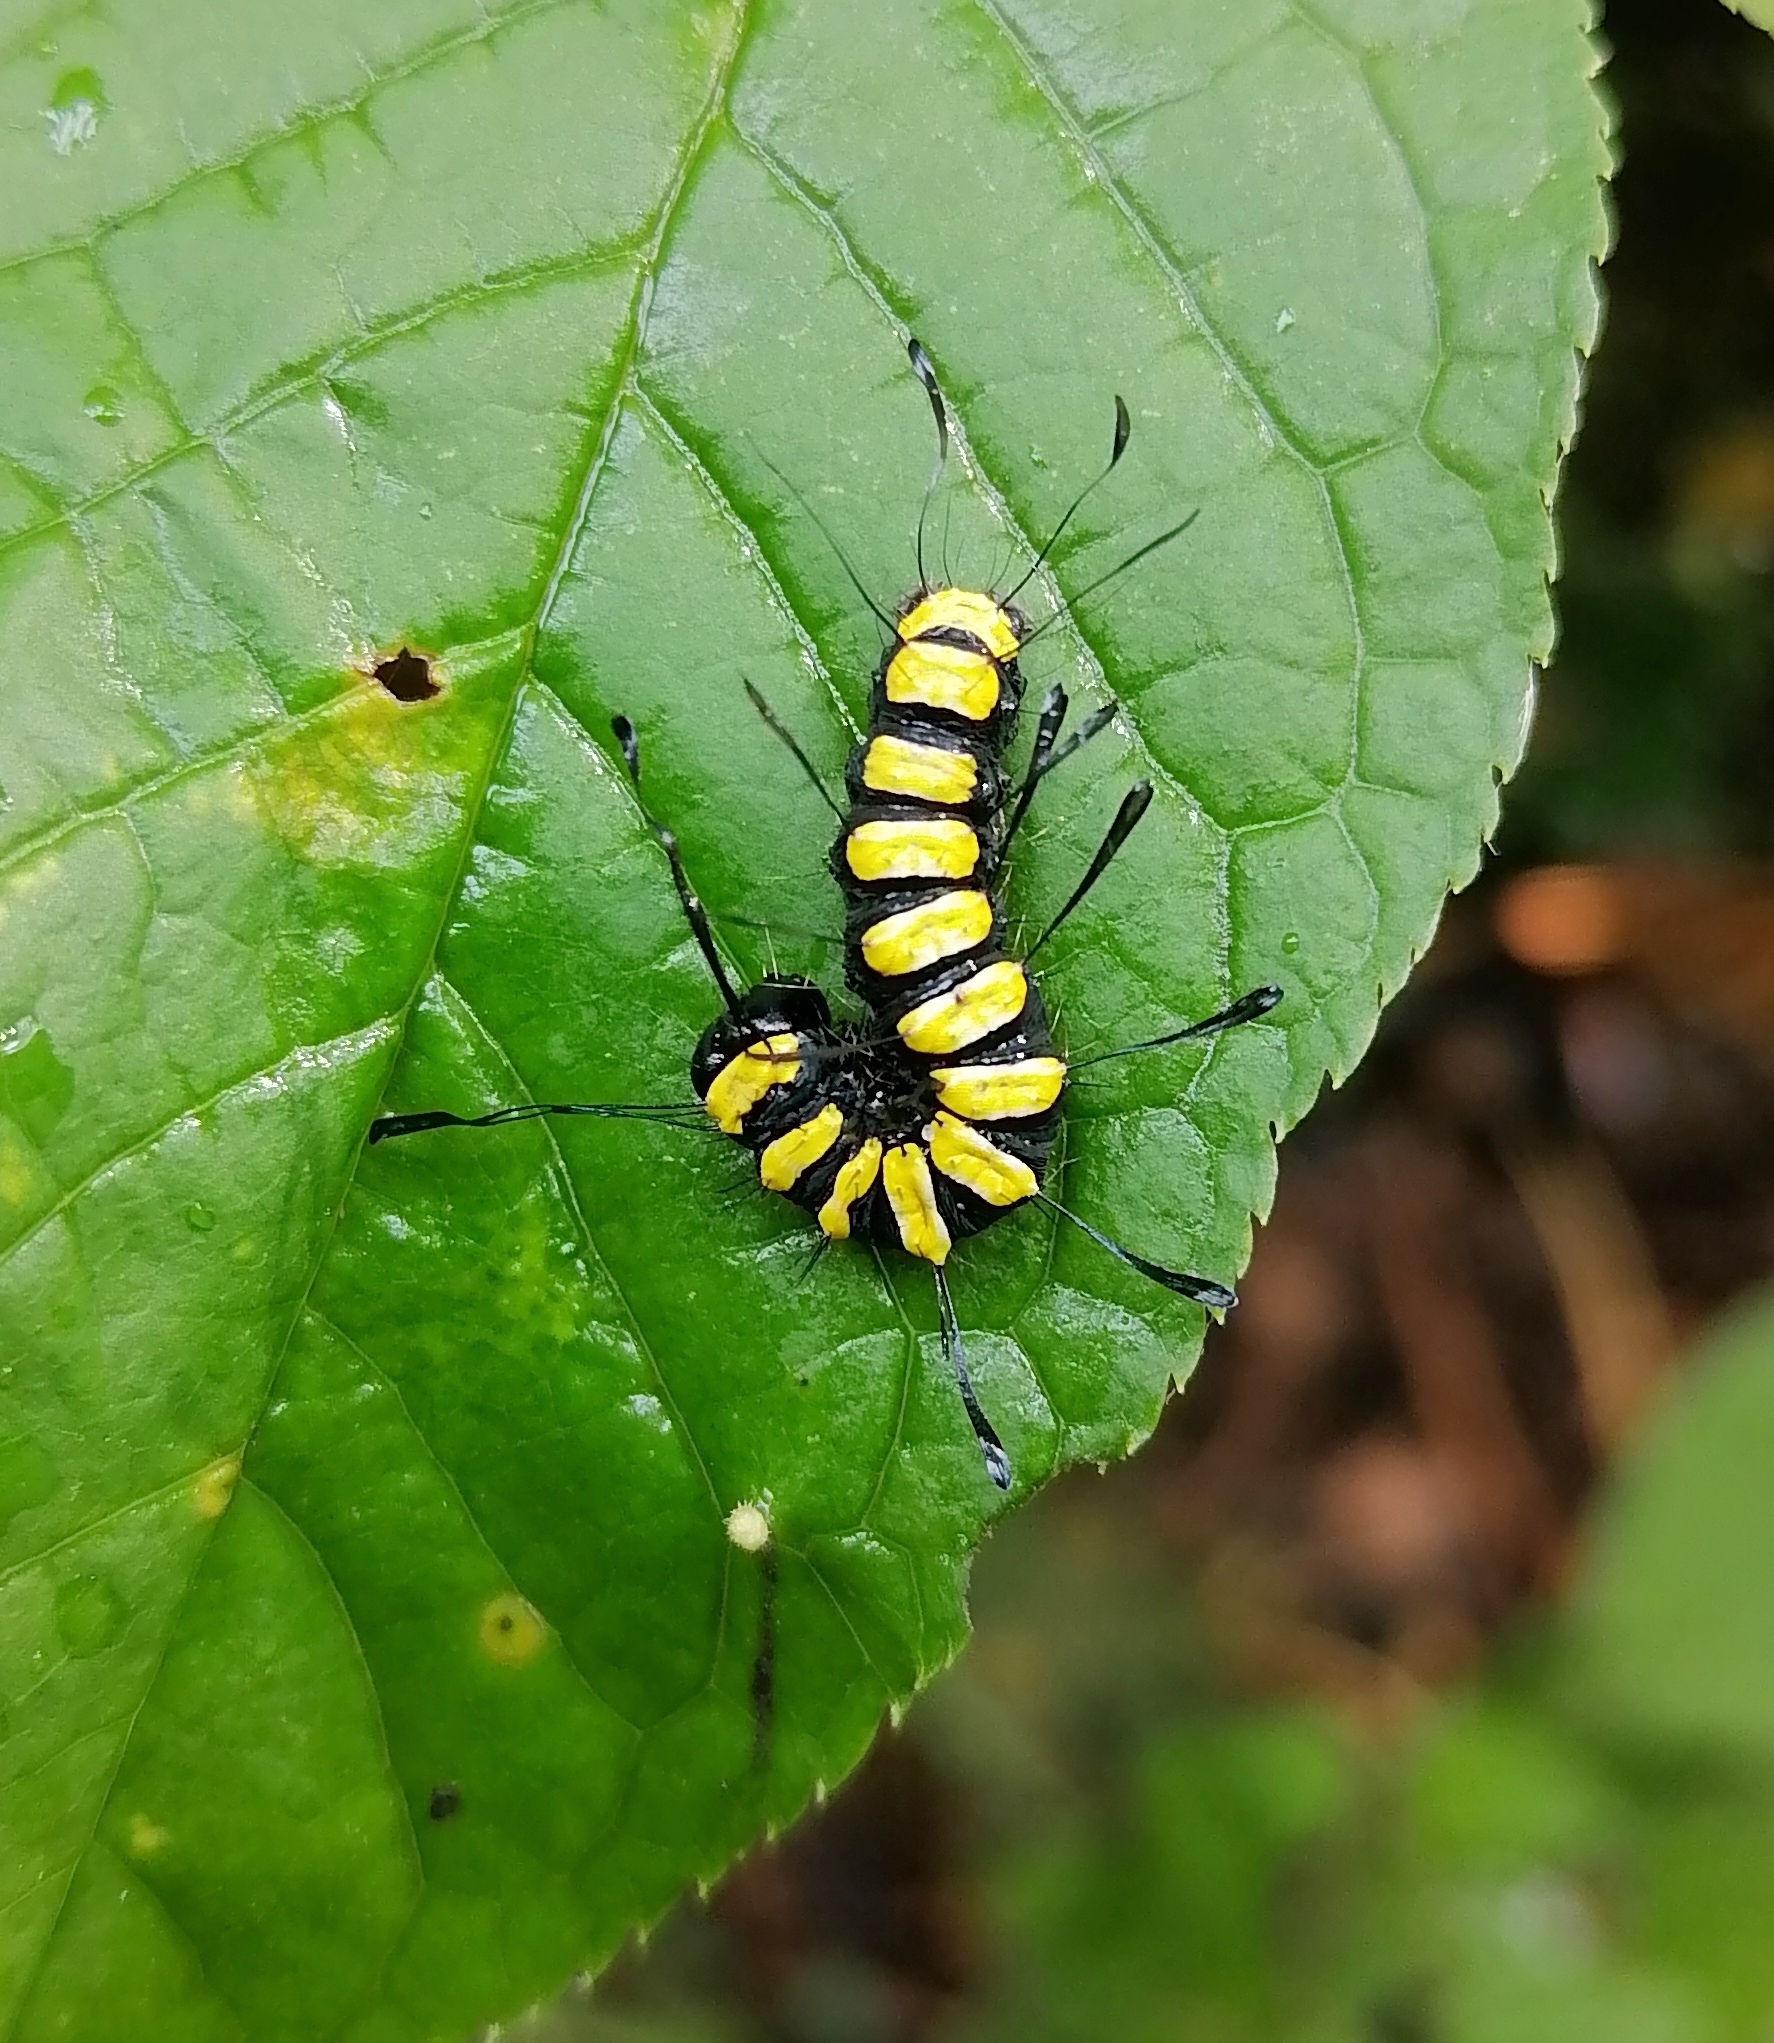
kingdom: Animalia
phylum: Arthropoda
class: Insecta
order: Lepidoptera
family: Noctuidae
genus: Acronicta
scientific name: Acronicta alni
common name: Alder moth
